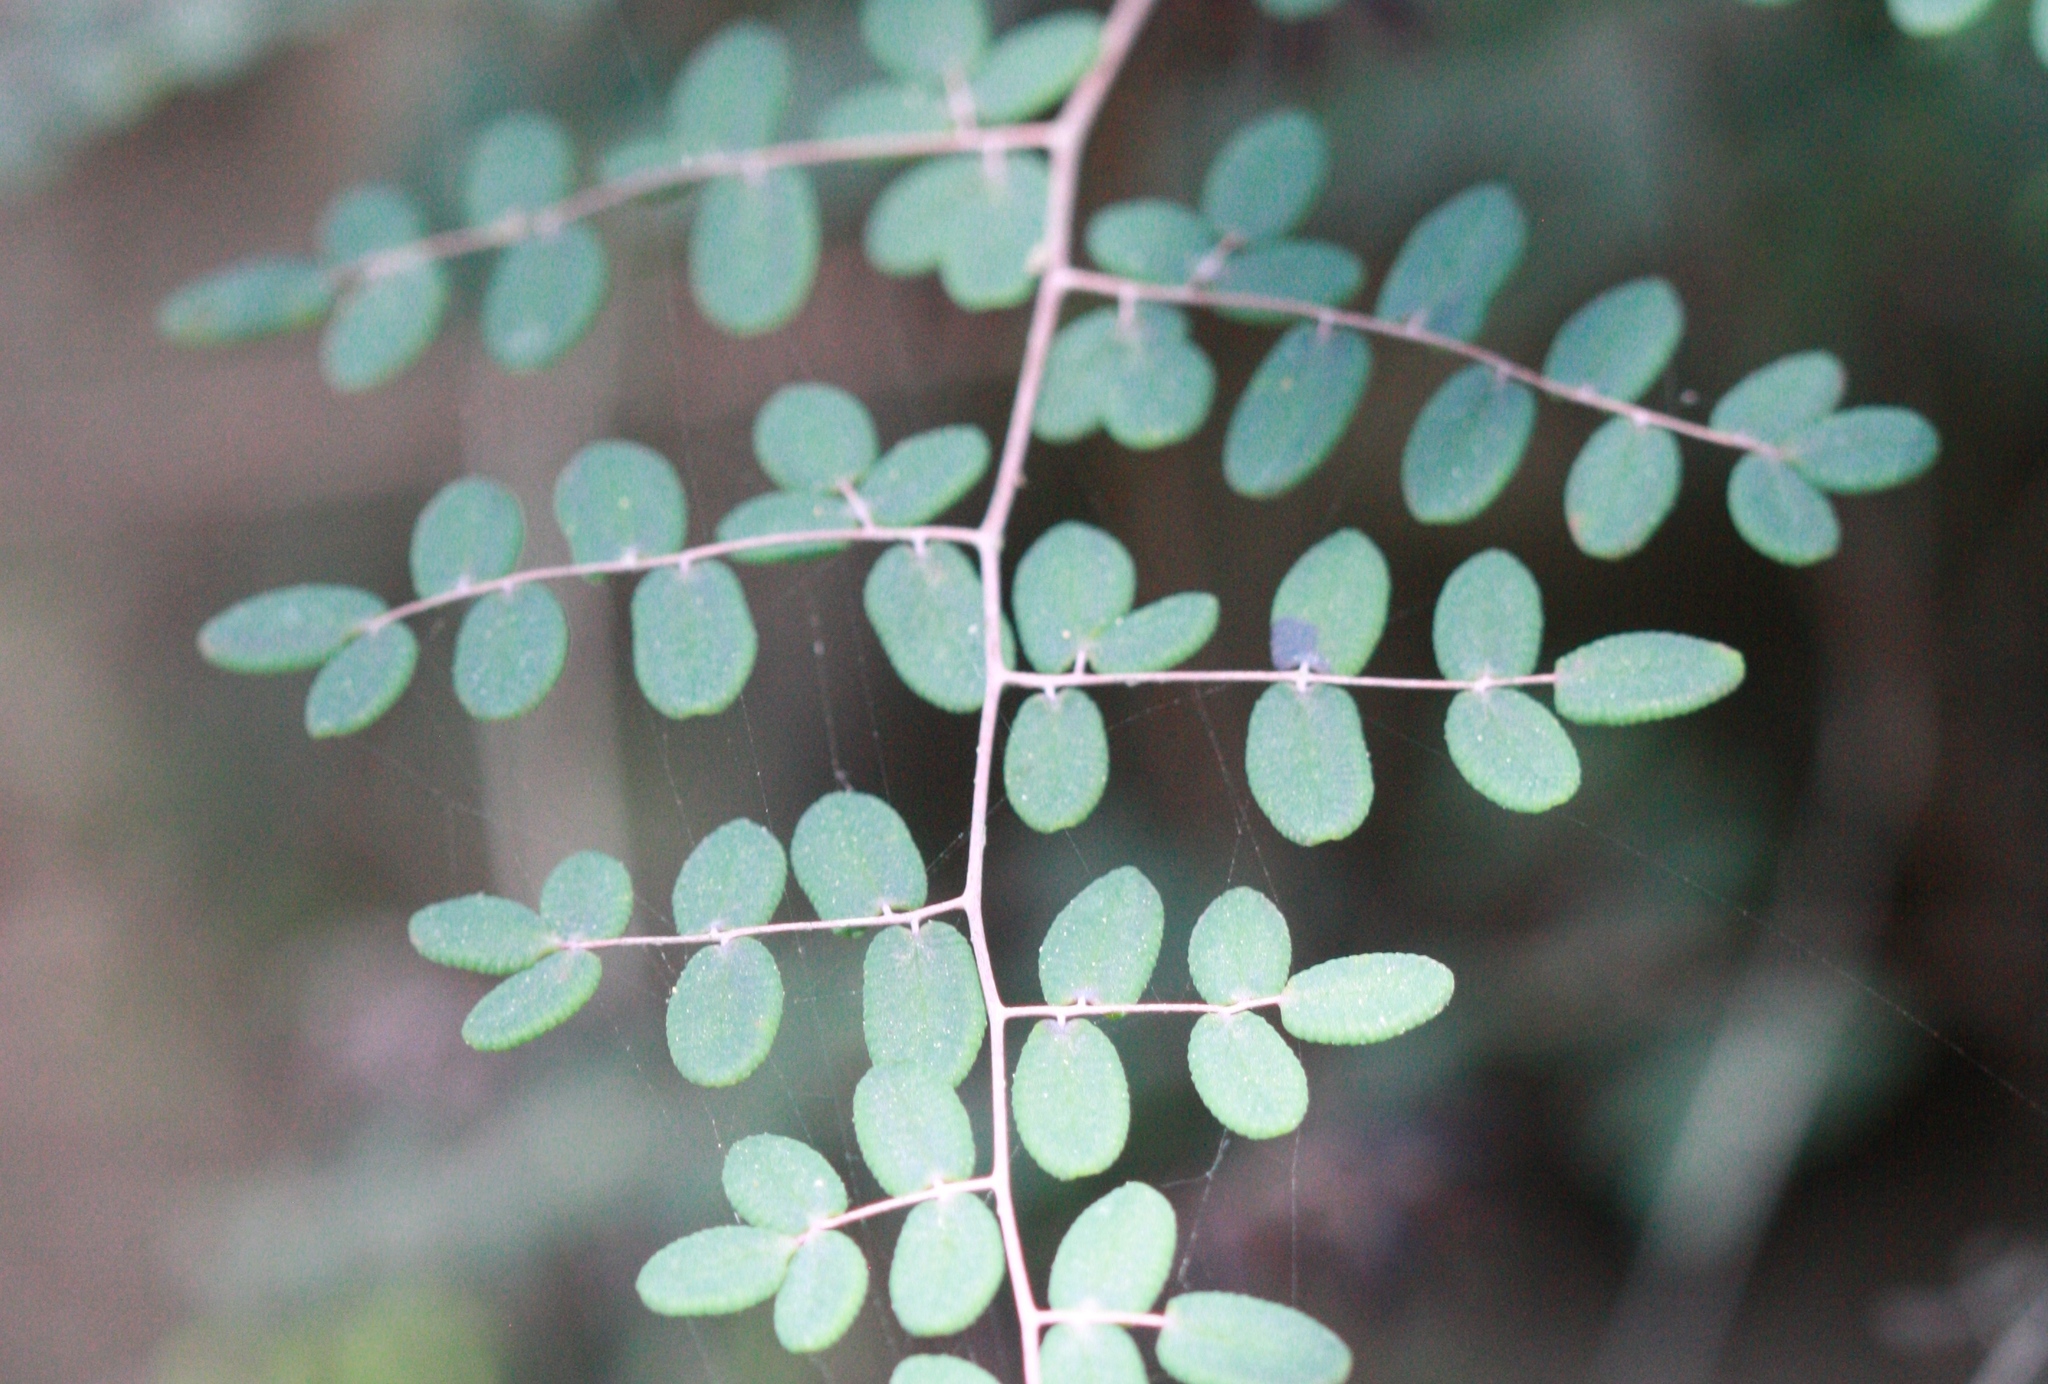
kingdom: Plantae
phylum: Tracheophyta
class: Polypodiopsida
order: Polypodiales
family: Pteridaceae
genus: Pellaea
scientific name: Pellaea andromedifolia
